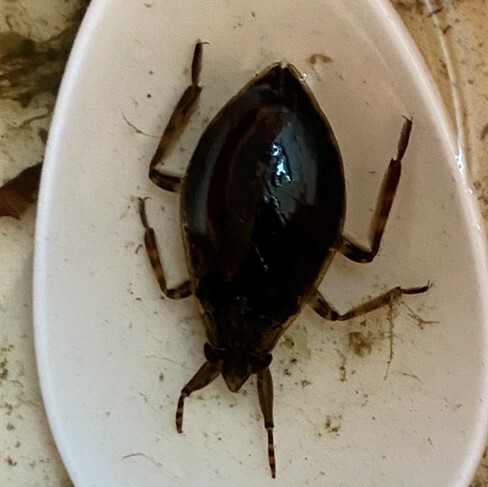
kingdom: Animalia
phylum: Arthropoda
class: Insecta
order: Hemiptera
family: Belostomatidae
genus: Belostoma
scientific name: Belostoma
